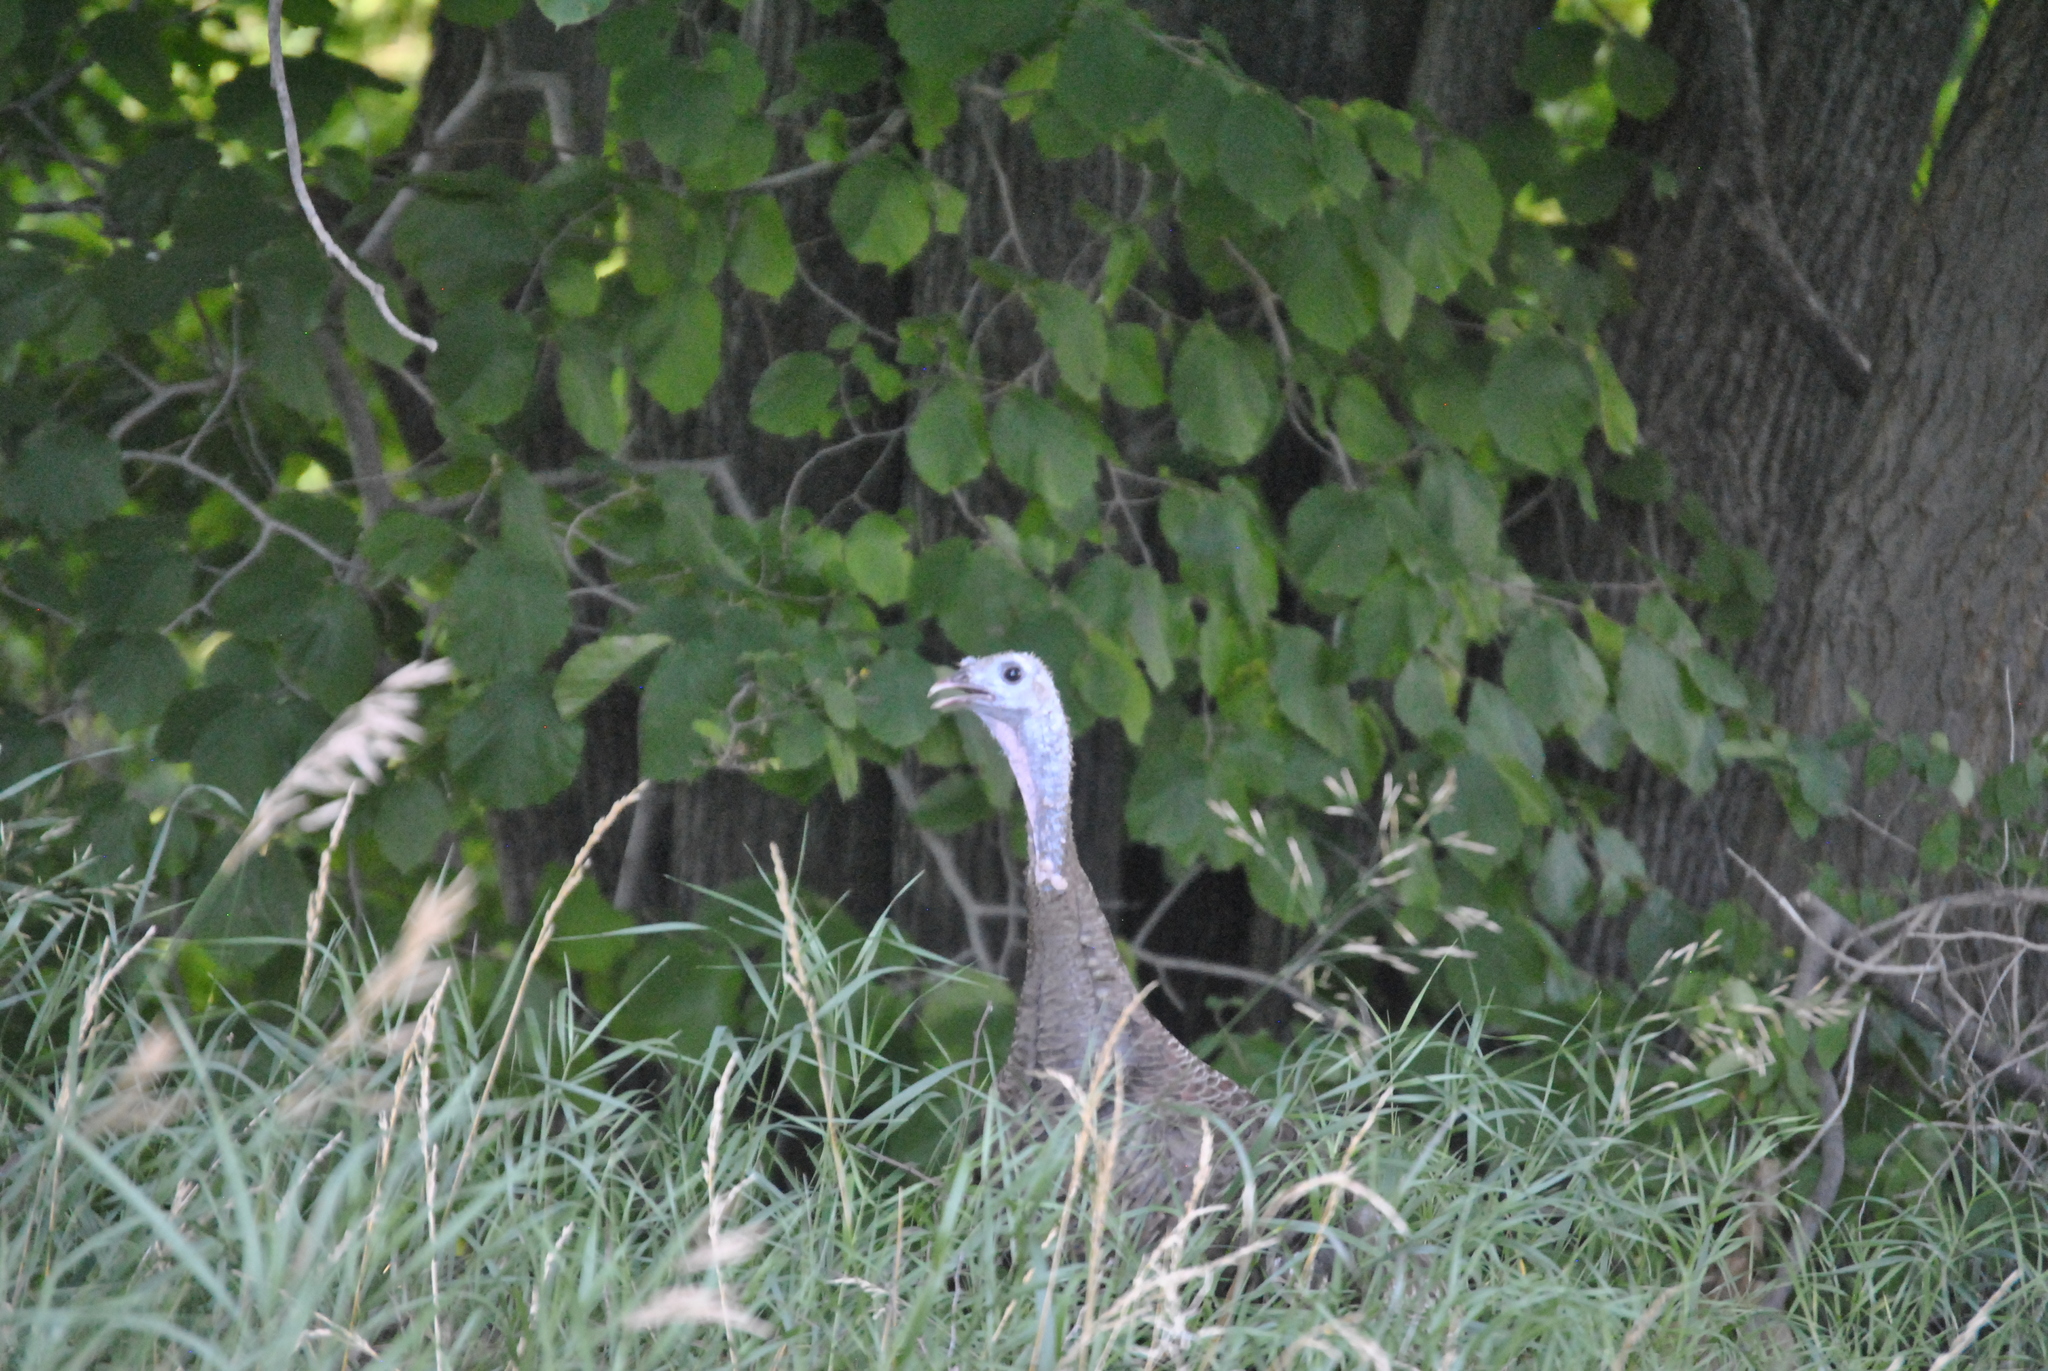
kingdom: Animalia
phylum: Chordata
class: Aves
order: Galliformes
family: Phasianidae
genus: Meleagris
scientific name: Meleagris gallopavo
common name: Wild turkey
